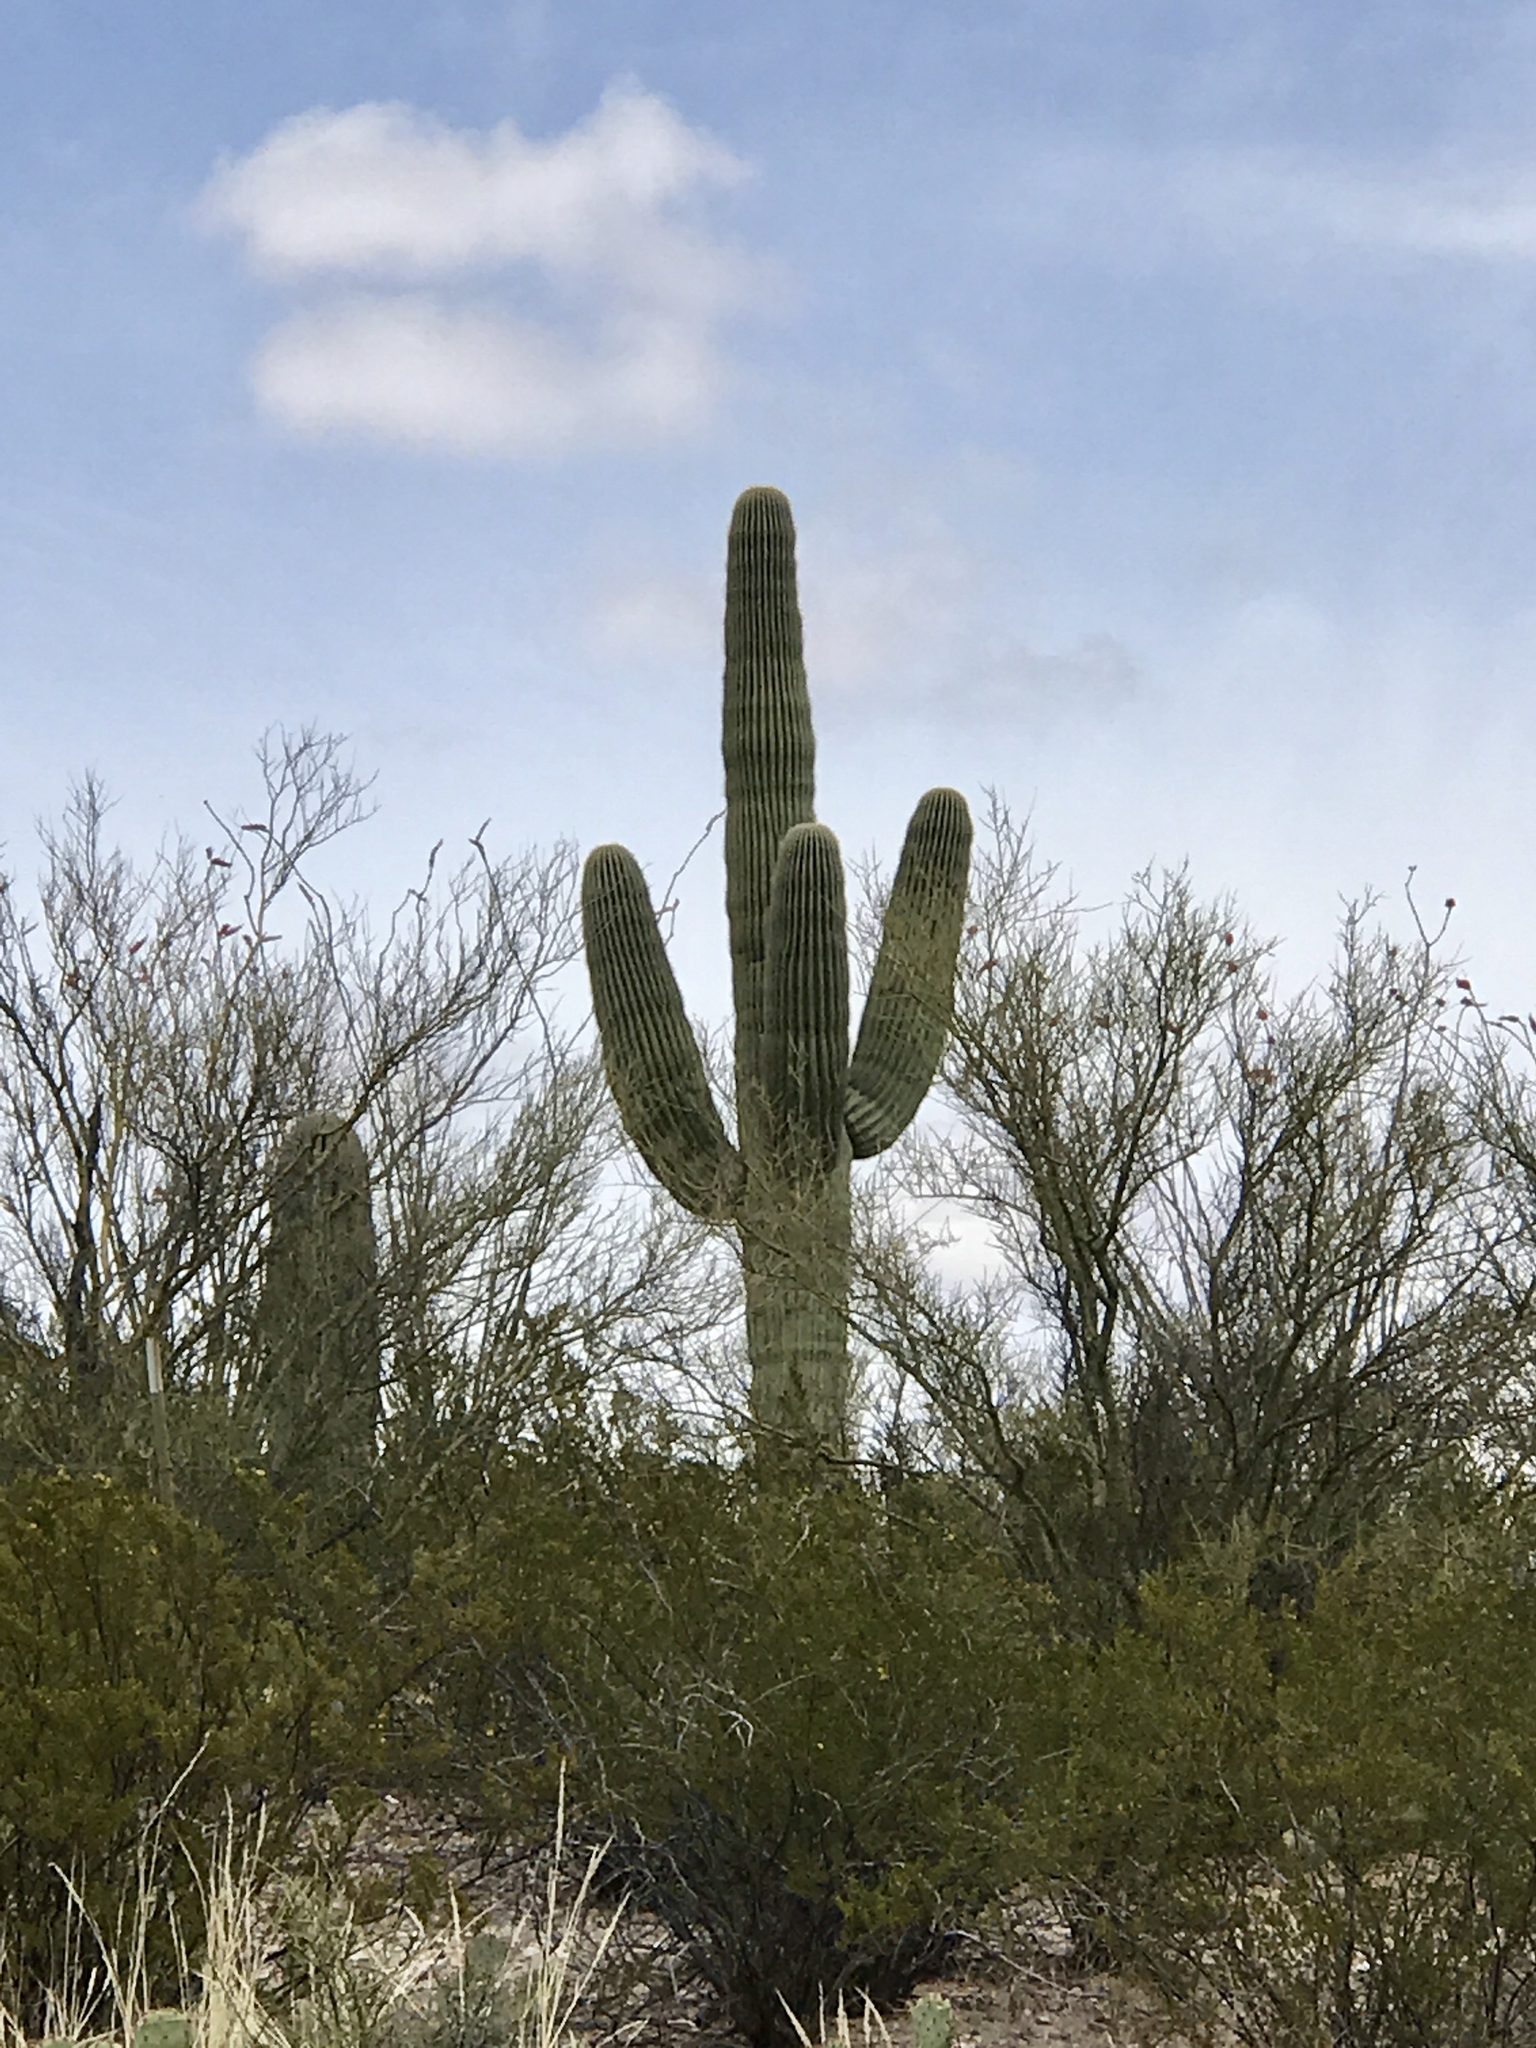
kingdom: Plantae
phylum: Tracheophyta
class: Magnoliopsida
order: Caryophyllales
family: Cactaceae
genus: Carnegiea
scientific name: Carnegiea gigantea
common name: Saguaro
